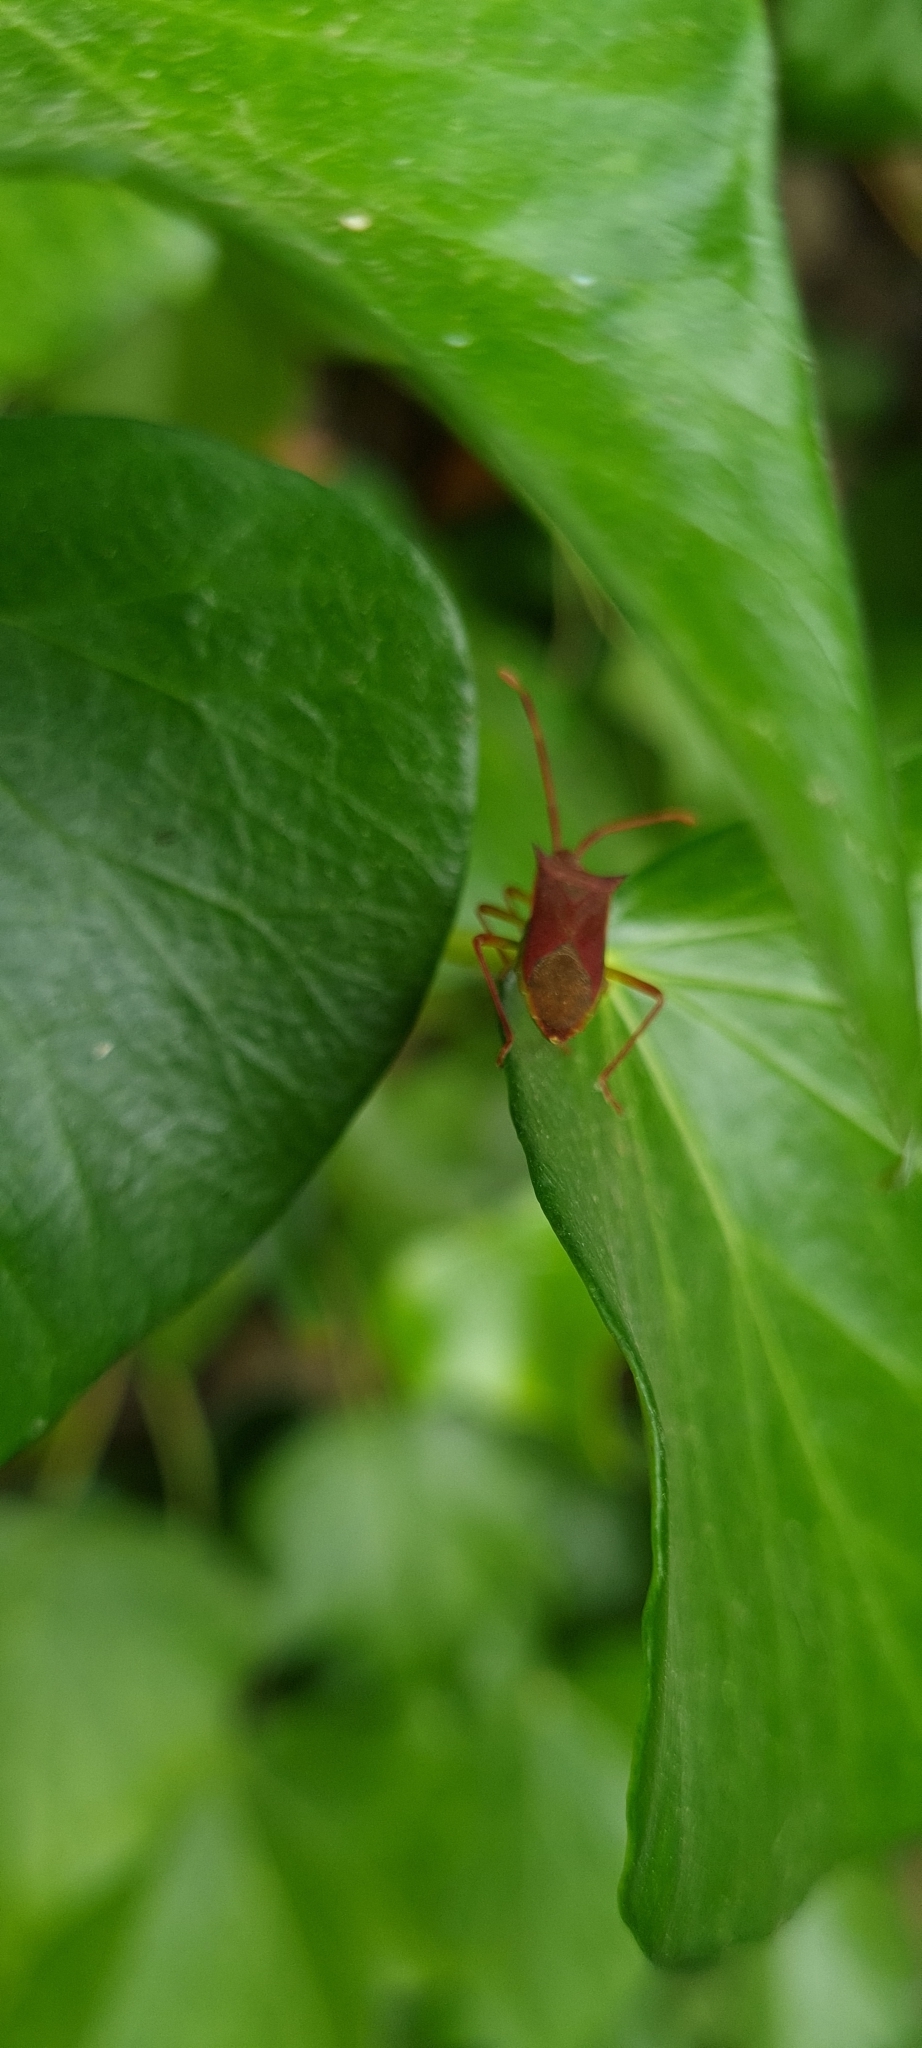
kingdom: Animalia
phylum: Arthropoda
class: Insecta
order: Hemiptera
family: Coreidae
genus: Gonocerus
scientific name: Gonocerus insidiator
